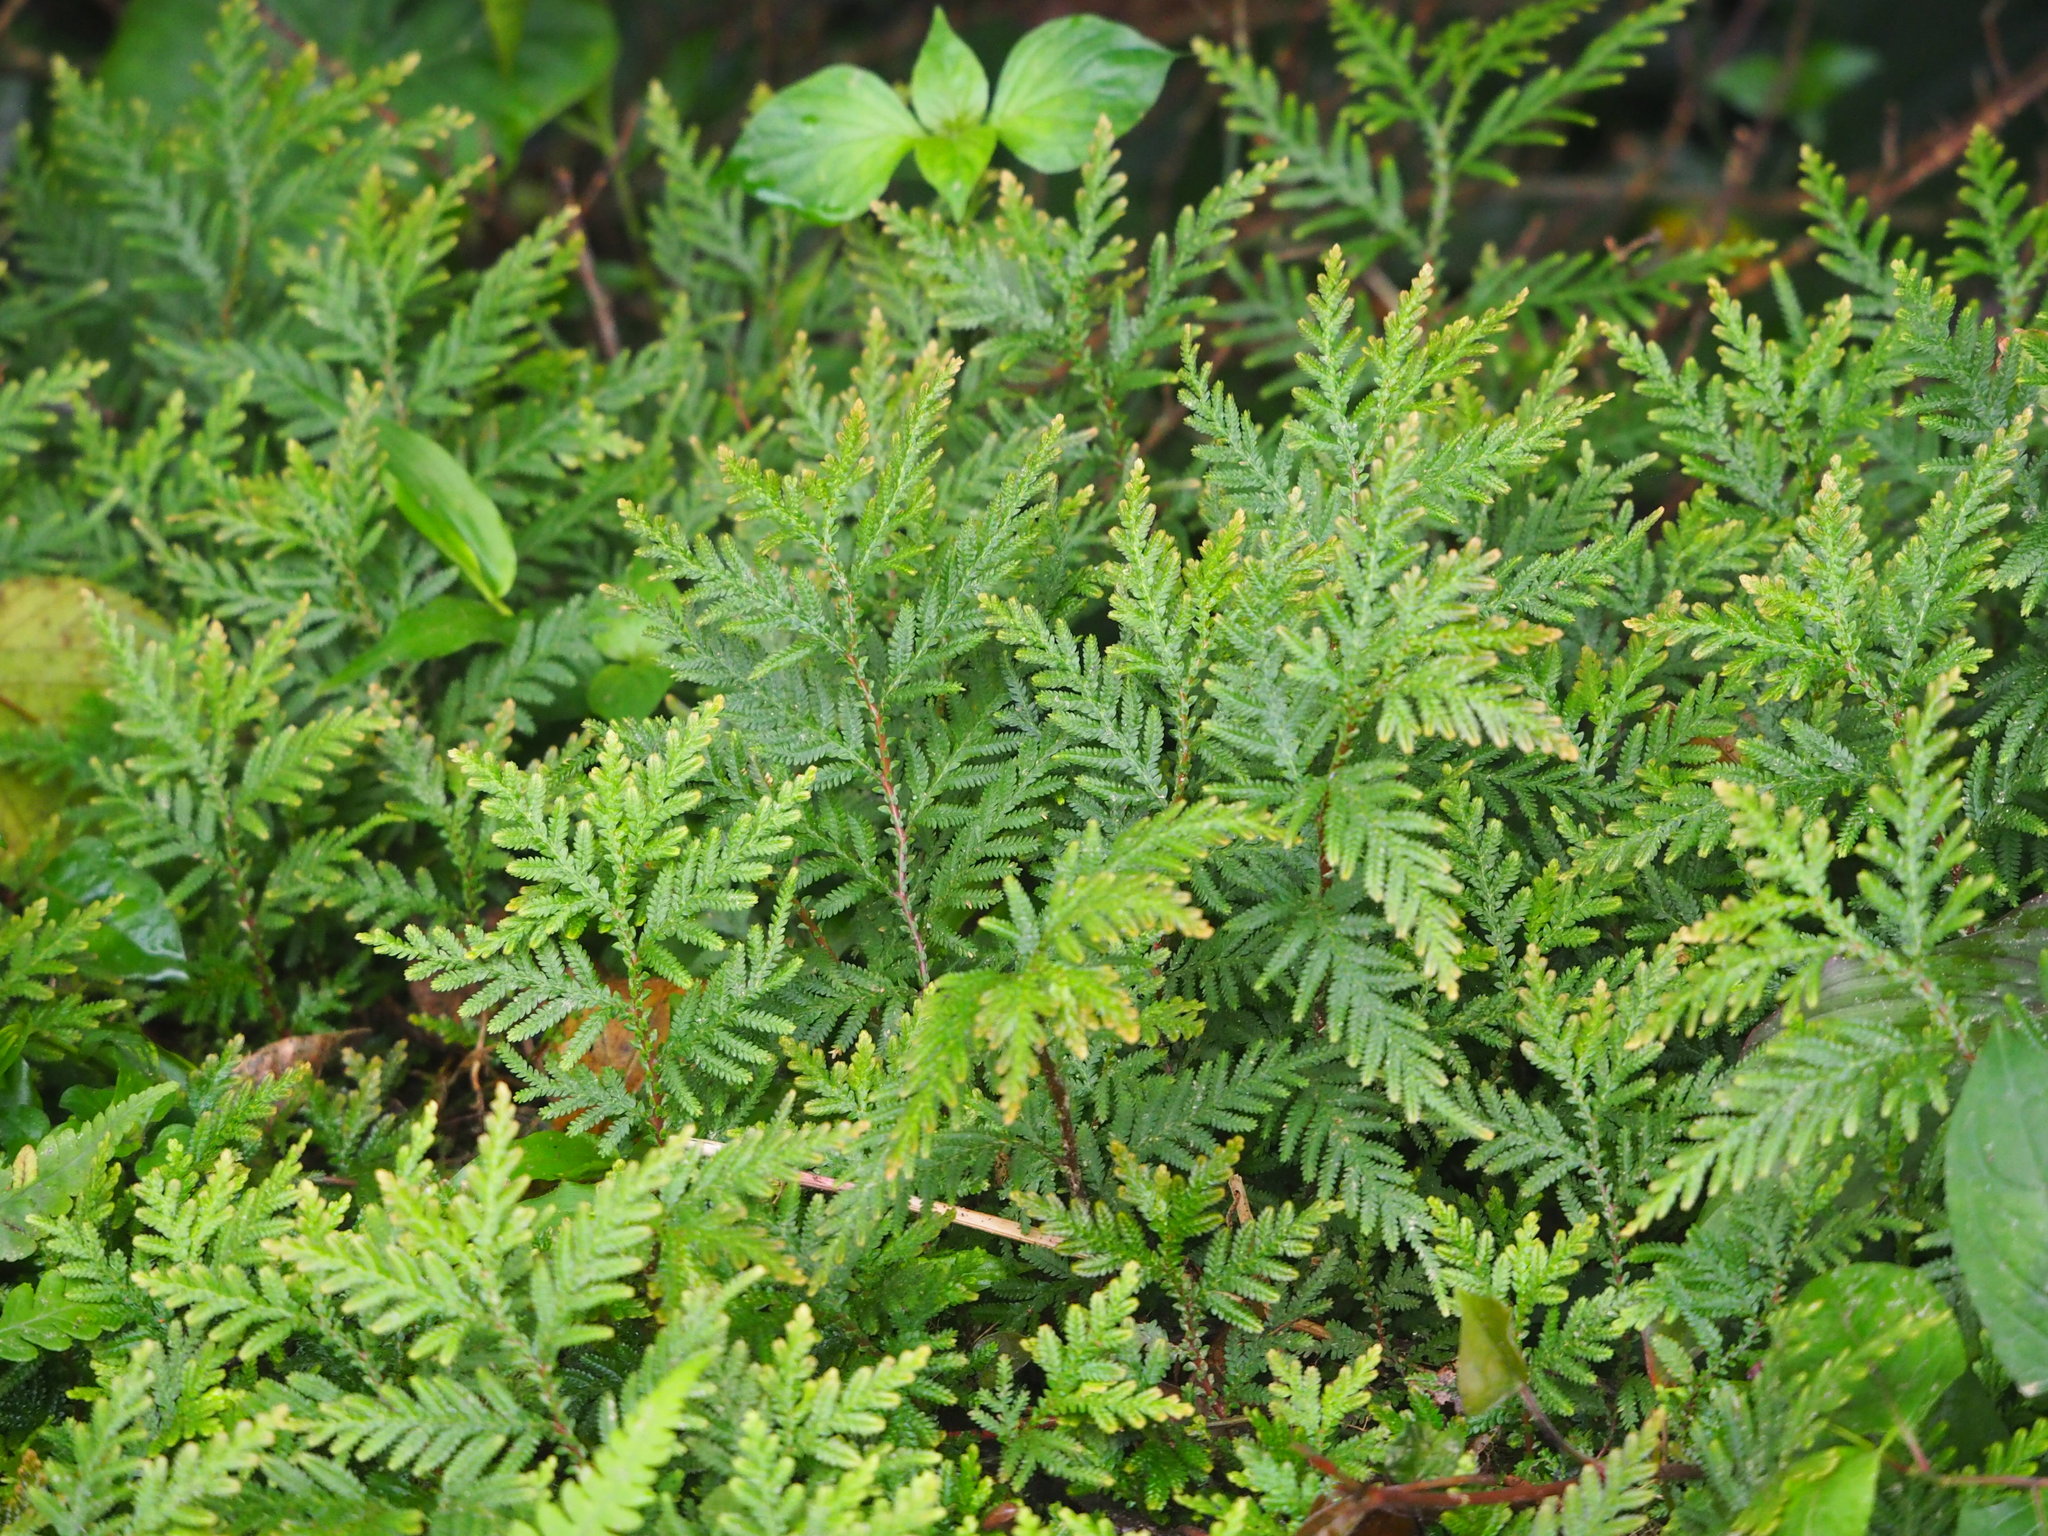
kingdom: Plantae
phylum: Tracheophyta
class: Lycopodiopsida
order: Selaginellales
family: Selaginellaceae
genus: Selaginella
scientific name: Selaginella delicatula
